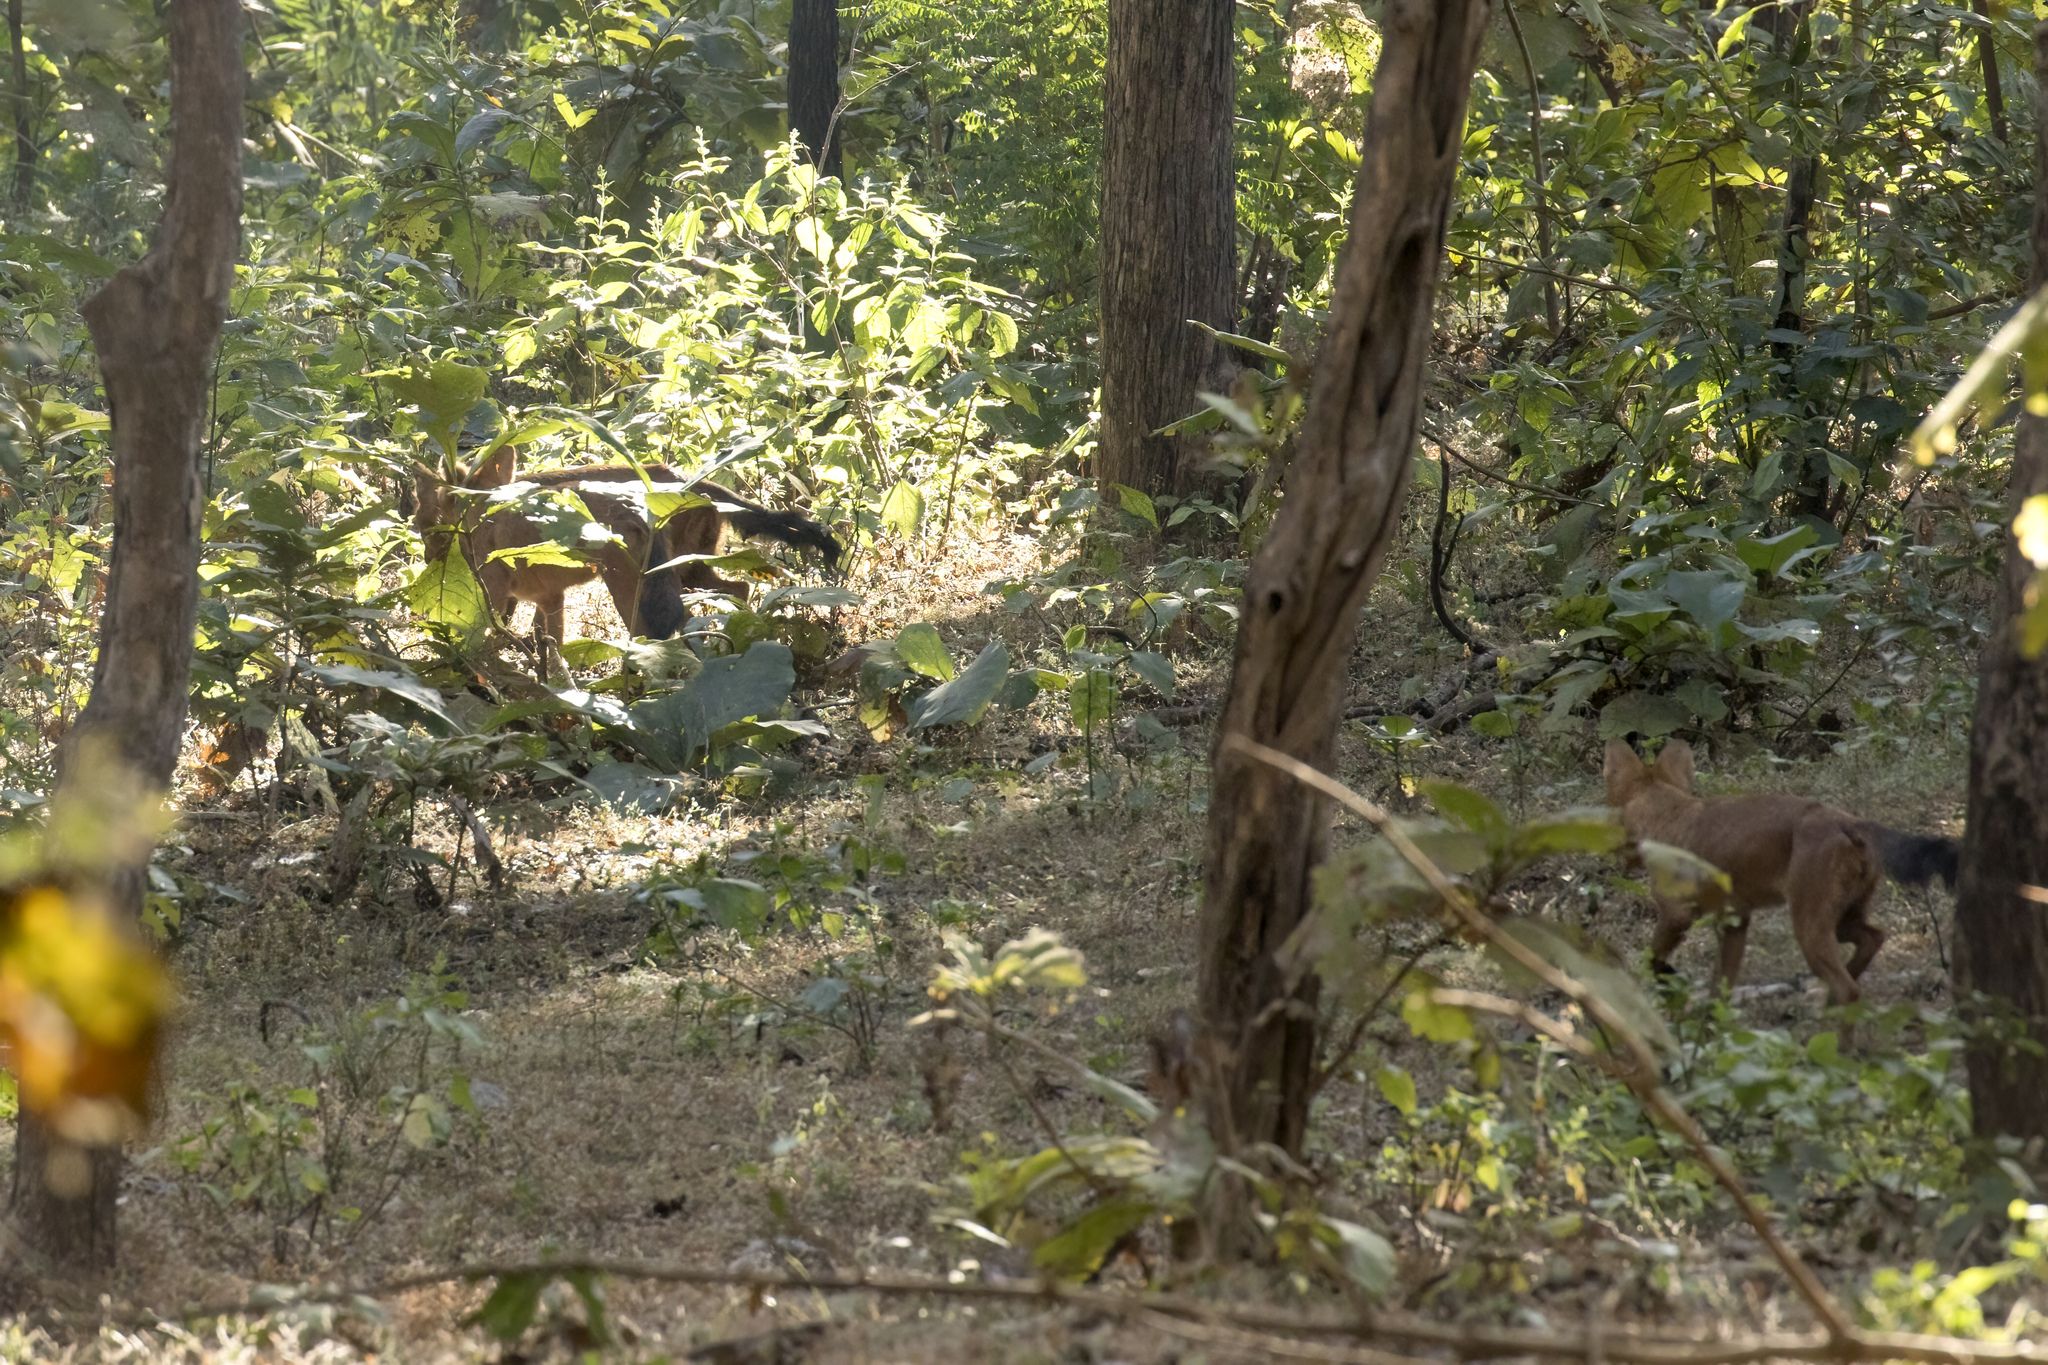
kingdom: Animalia
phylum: Chordata
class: Mammalia
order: Carnivora
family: Canidae
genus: Cuon
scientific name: Cuon alpinus
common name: Dhole
